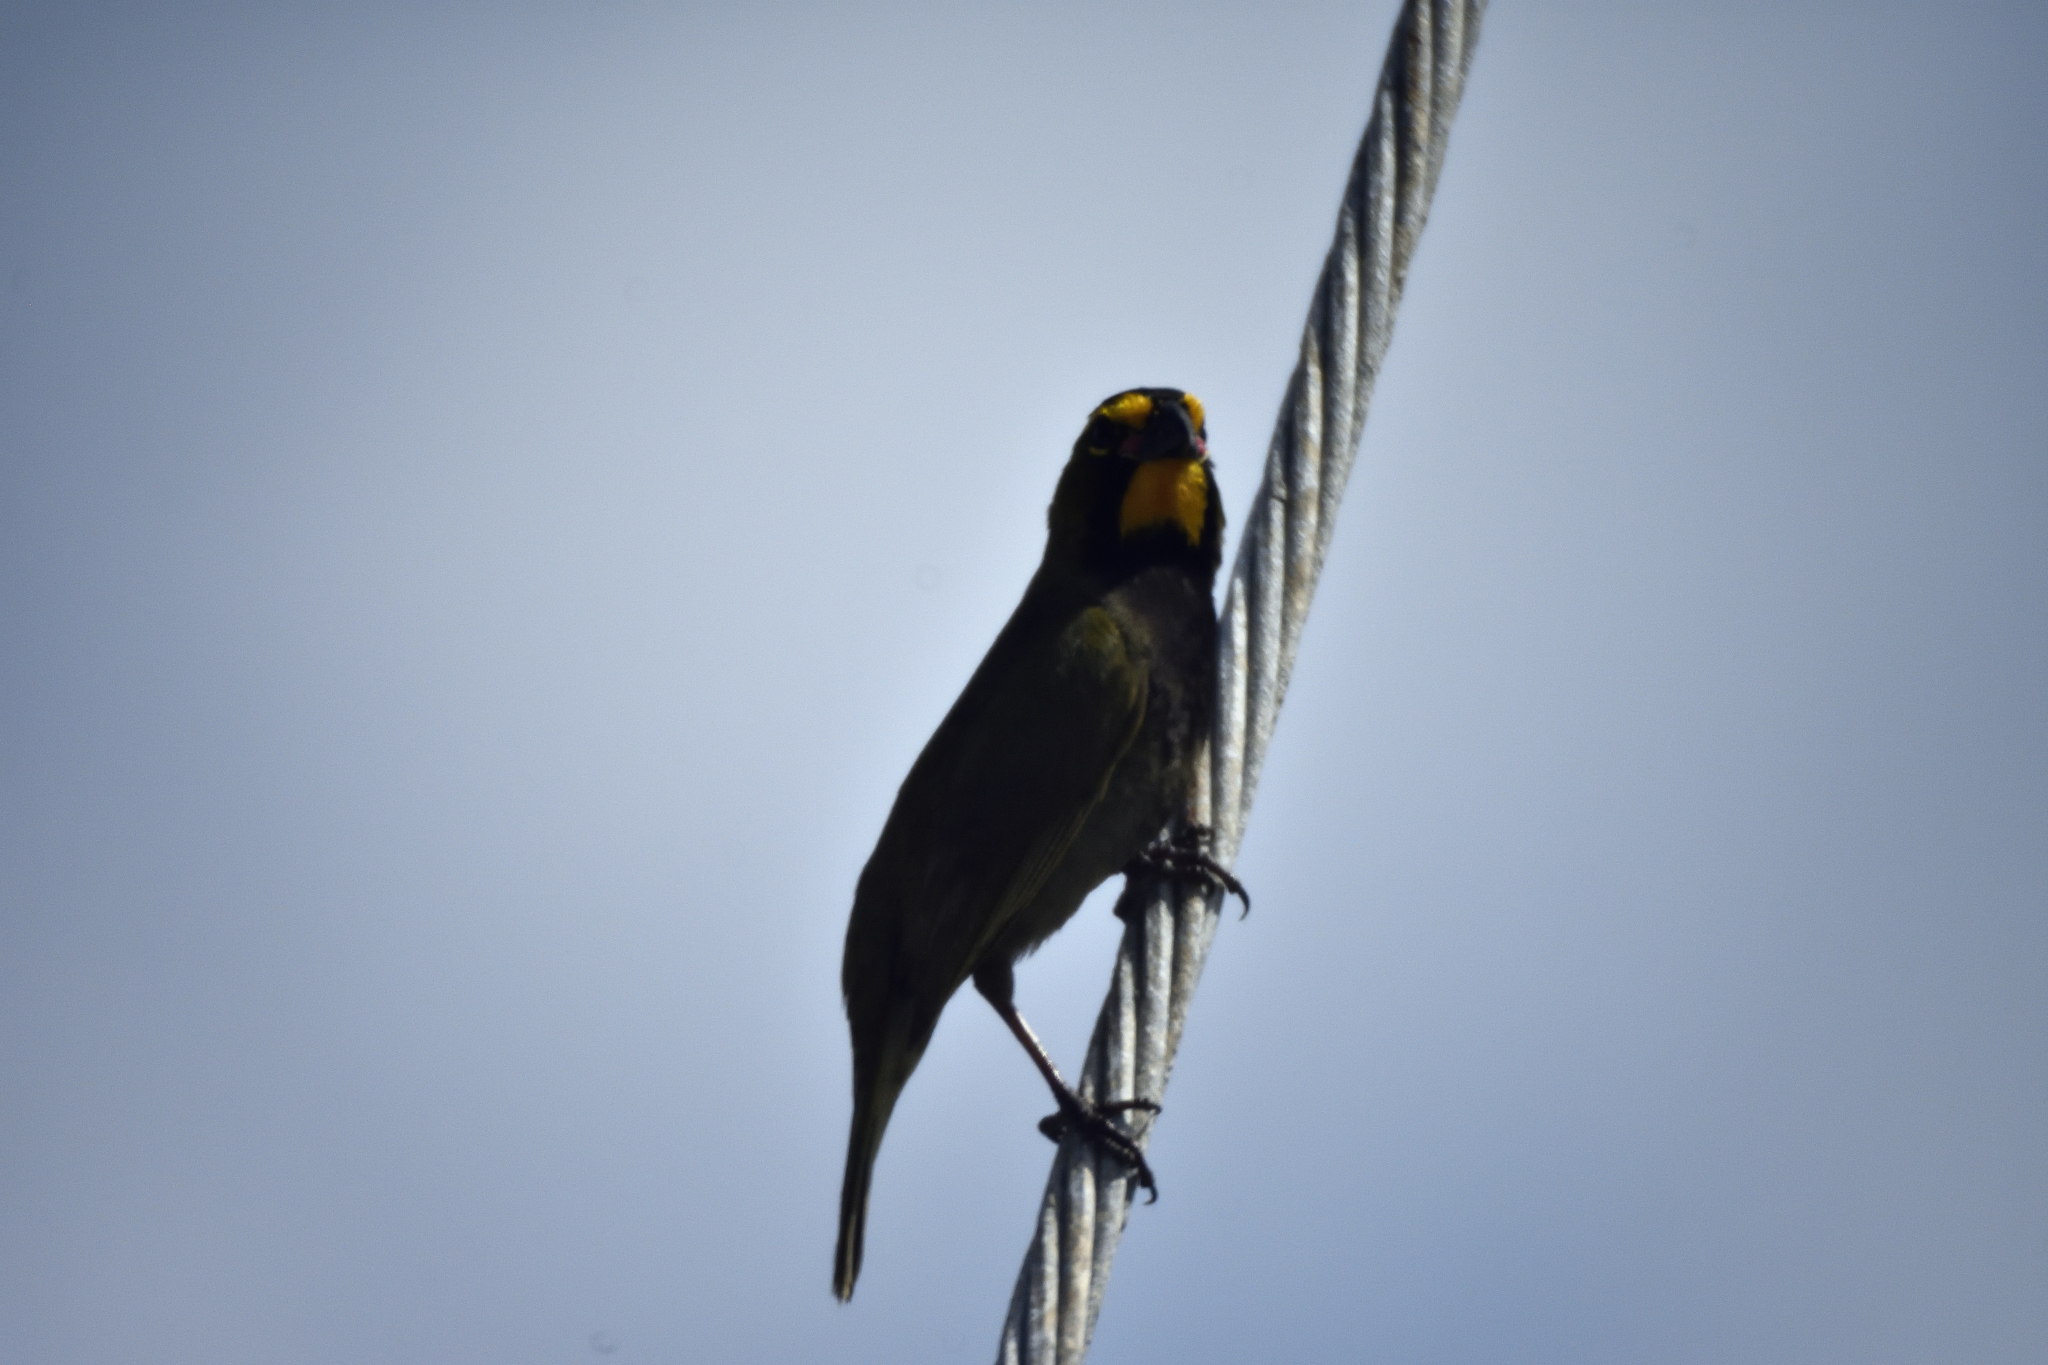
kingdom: Animalia
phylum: Chordata
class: Aves
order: Passeriformes
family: Thraupidae
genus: Tiaris
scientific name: Tiaris olivaceus
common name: Yellow-faced grassquit
